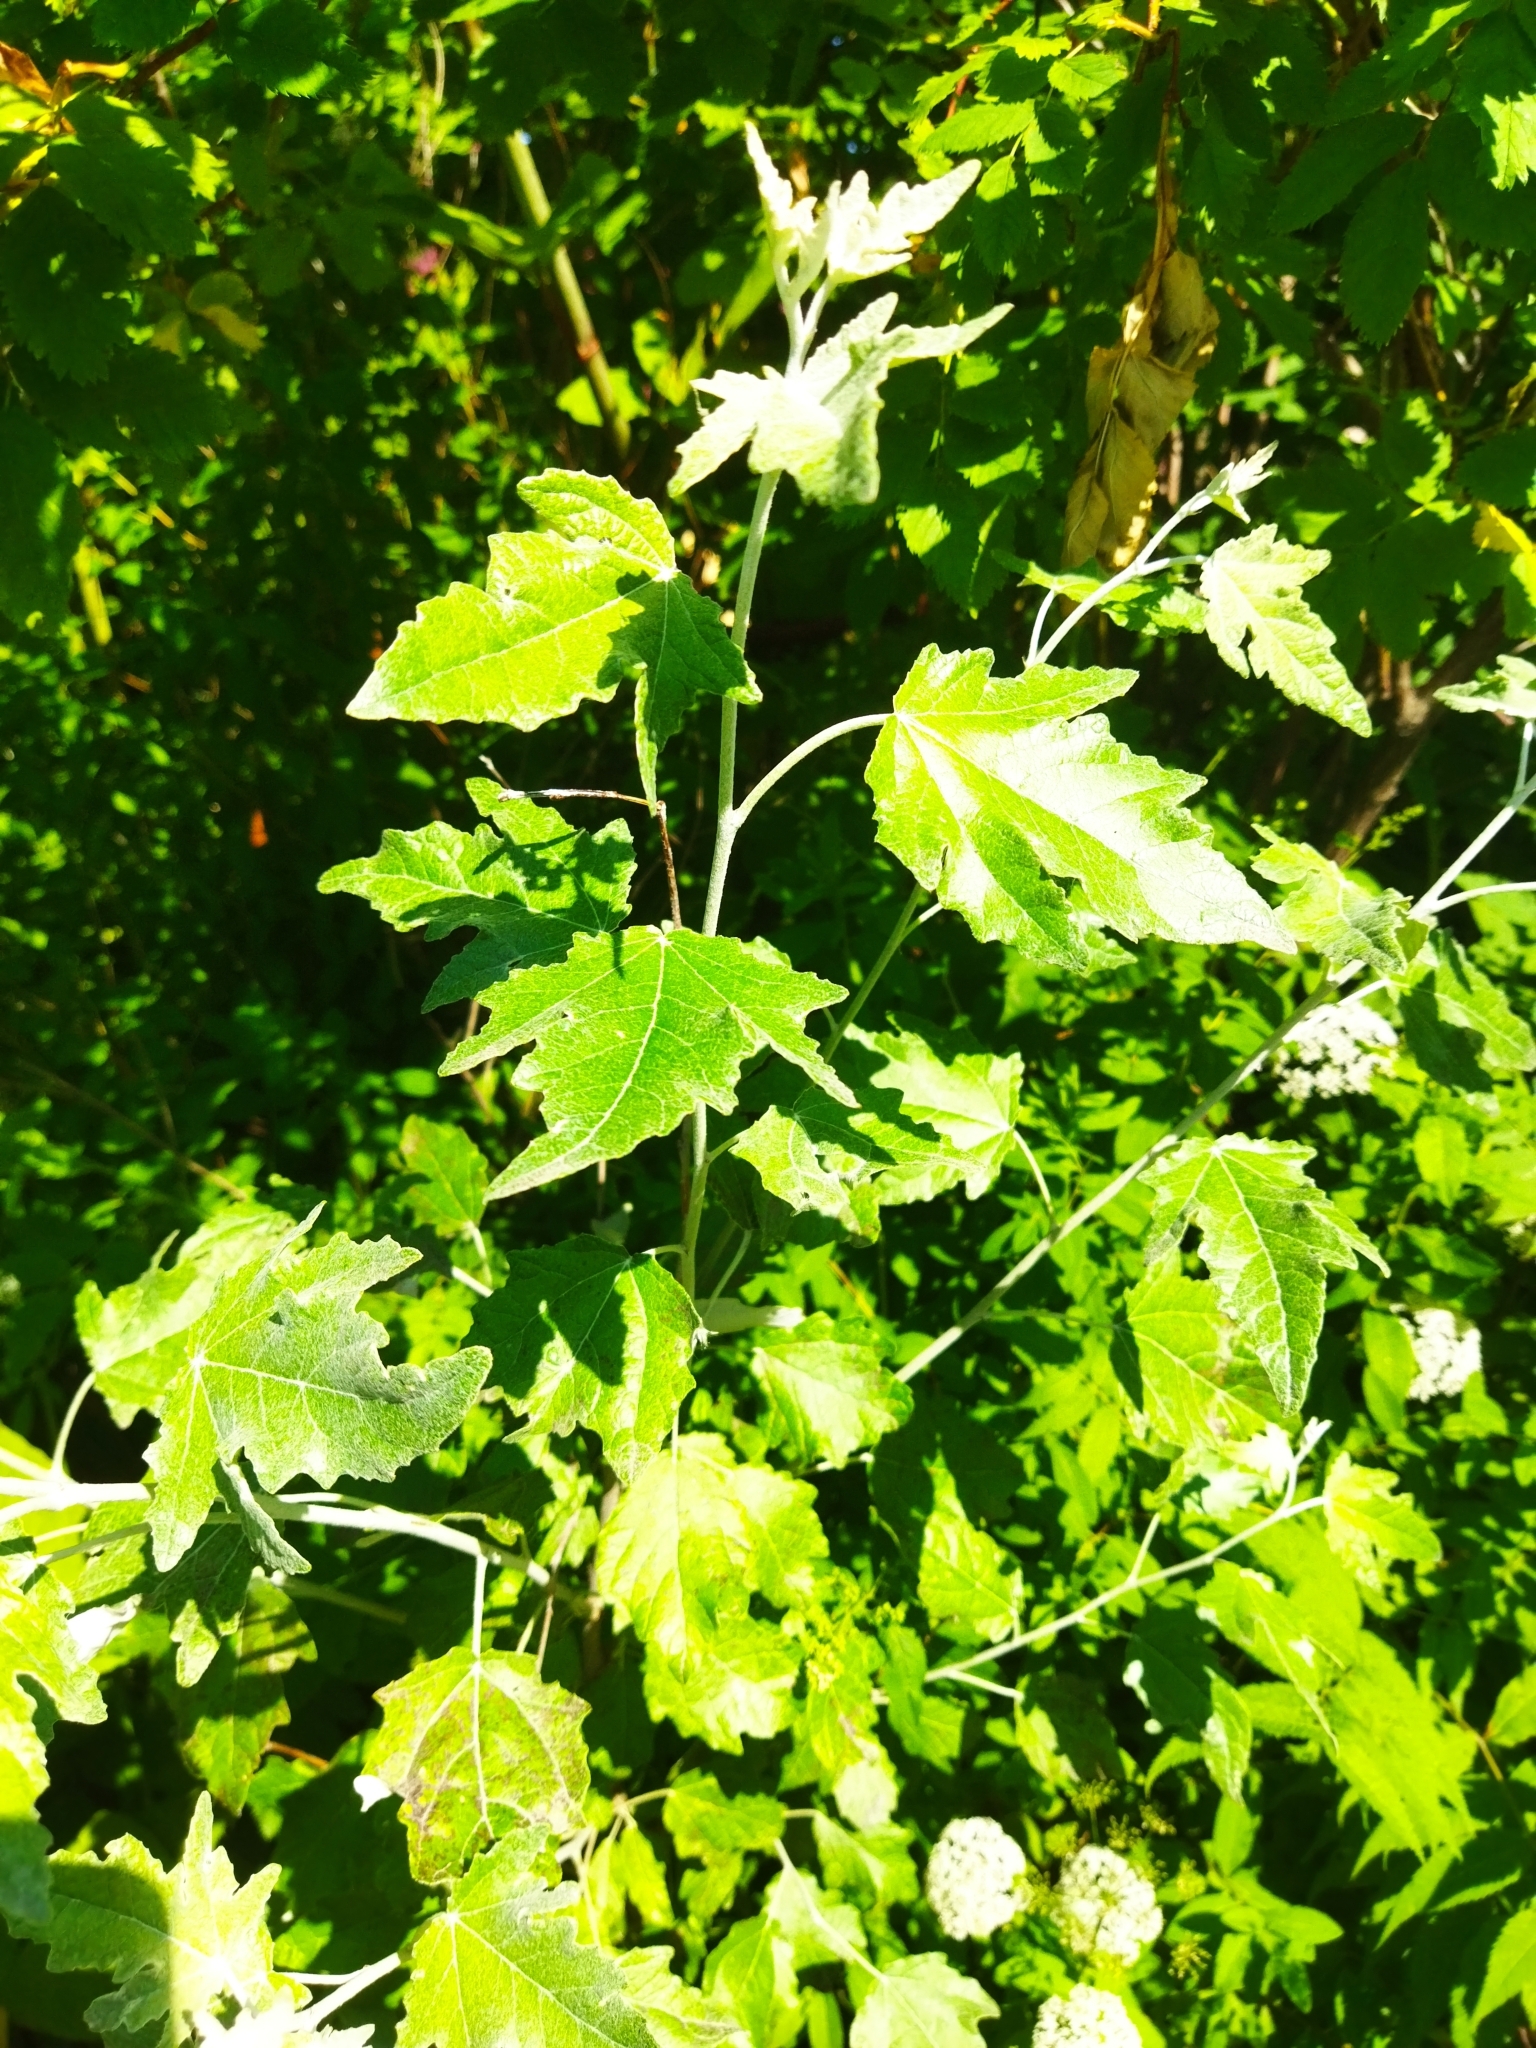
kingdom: Plantae
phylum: Tracheophyta
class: Magnoliopsida
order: Malpighiales
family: Salicaceae
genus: Populus
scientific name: Populus alba
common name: White poplar
